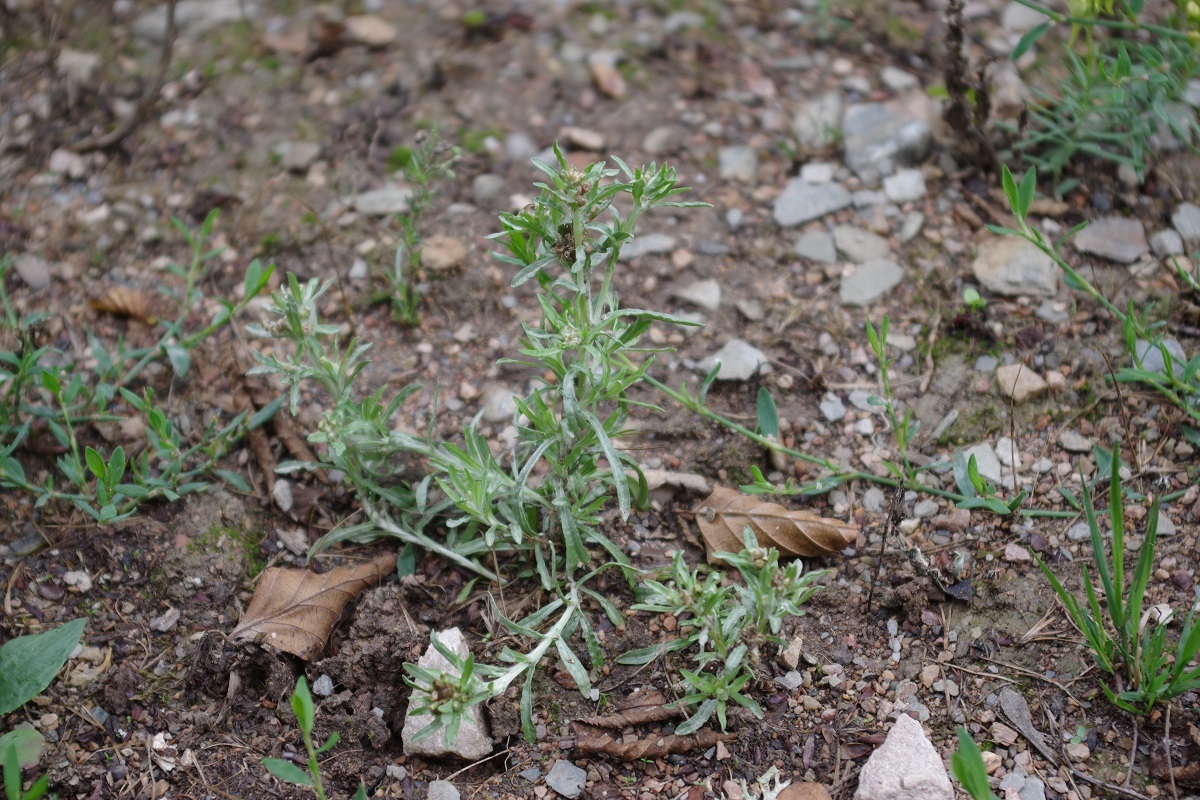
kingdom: Plantae
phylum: Tracheophyta
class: Magnoliopsida
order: Asterales
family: Asteraceae
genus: Gnaphalium
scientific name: Gnaphalium uliginosum
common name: Marsh cudweed
